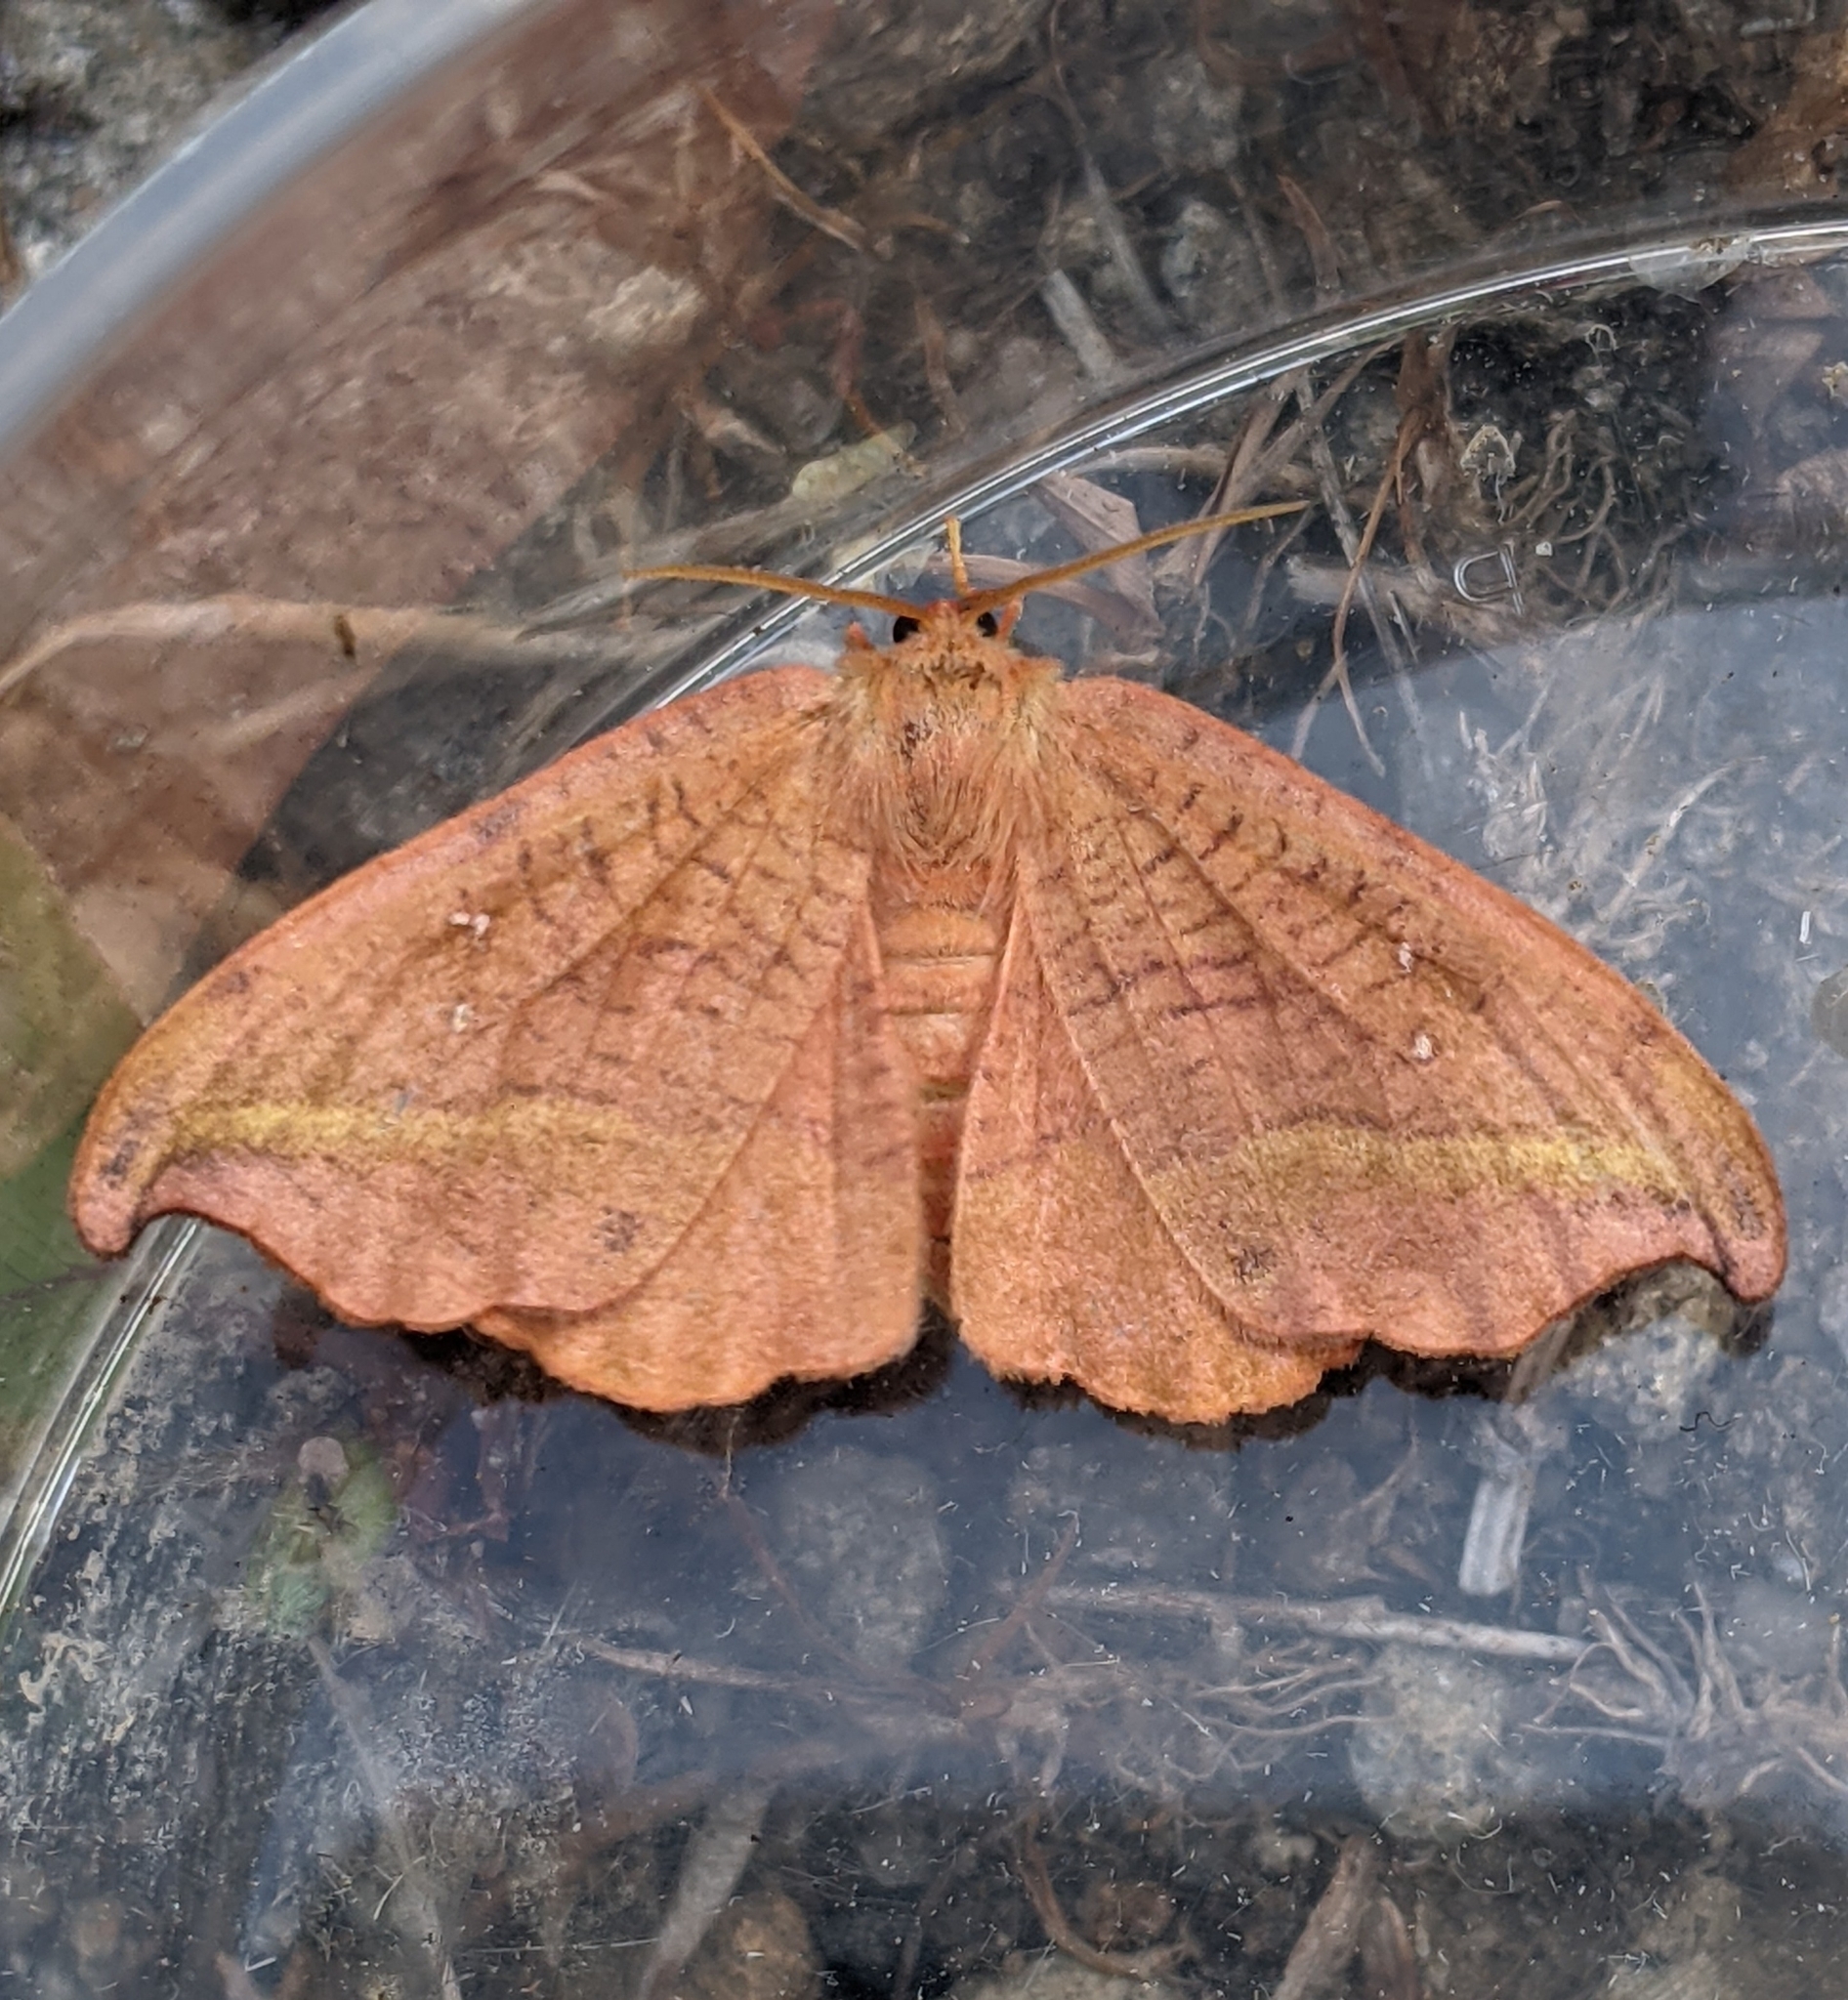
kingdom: Animalia
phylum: Arthropoda
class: Insecta
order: Lepidoptera
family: Drepanidae
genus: Oreta
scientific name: Oreta rosea
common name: Rose hooktip
